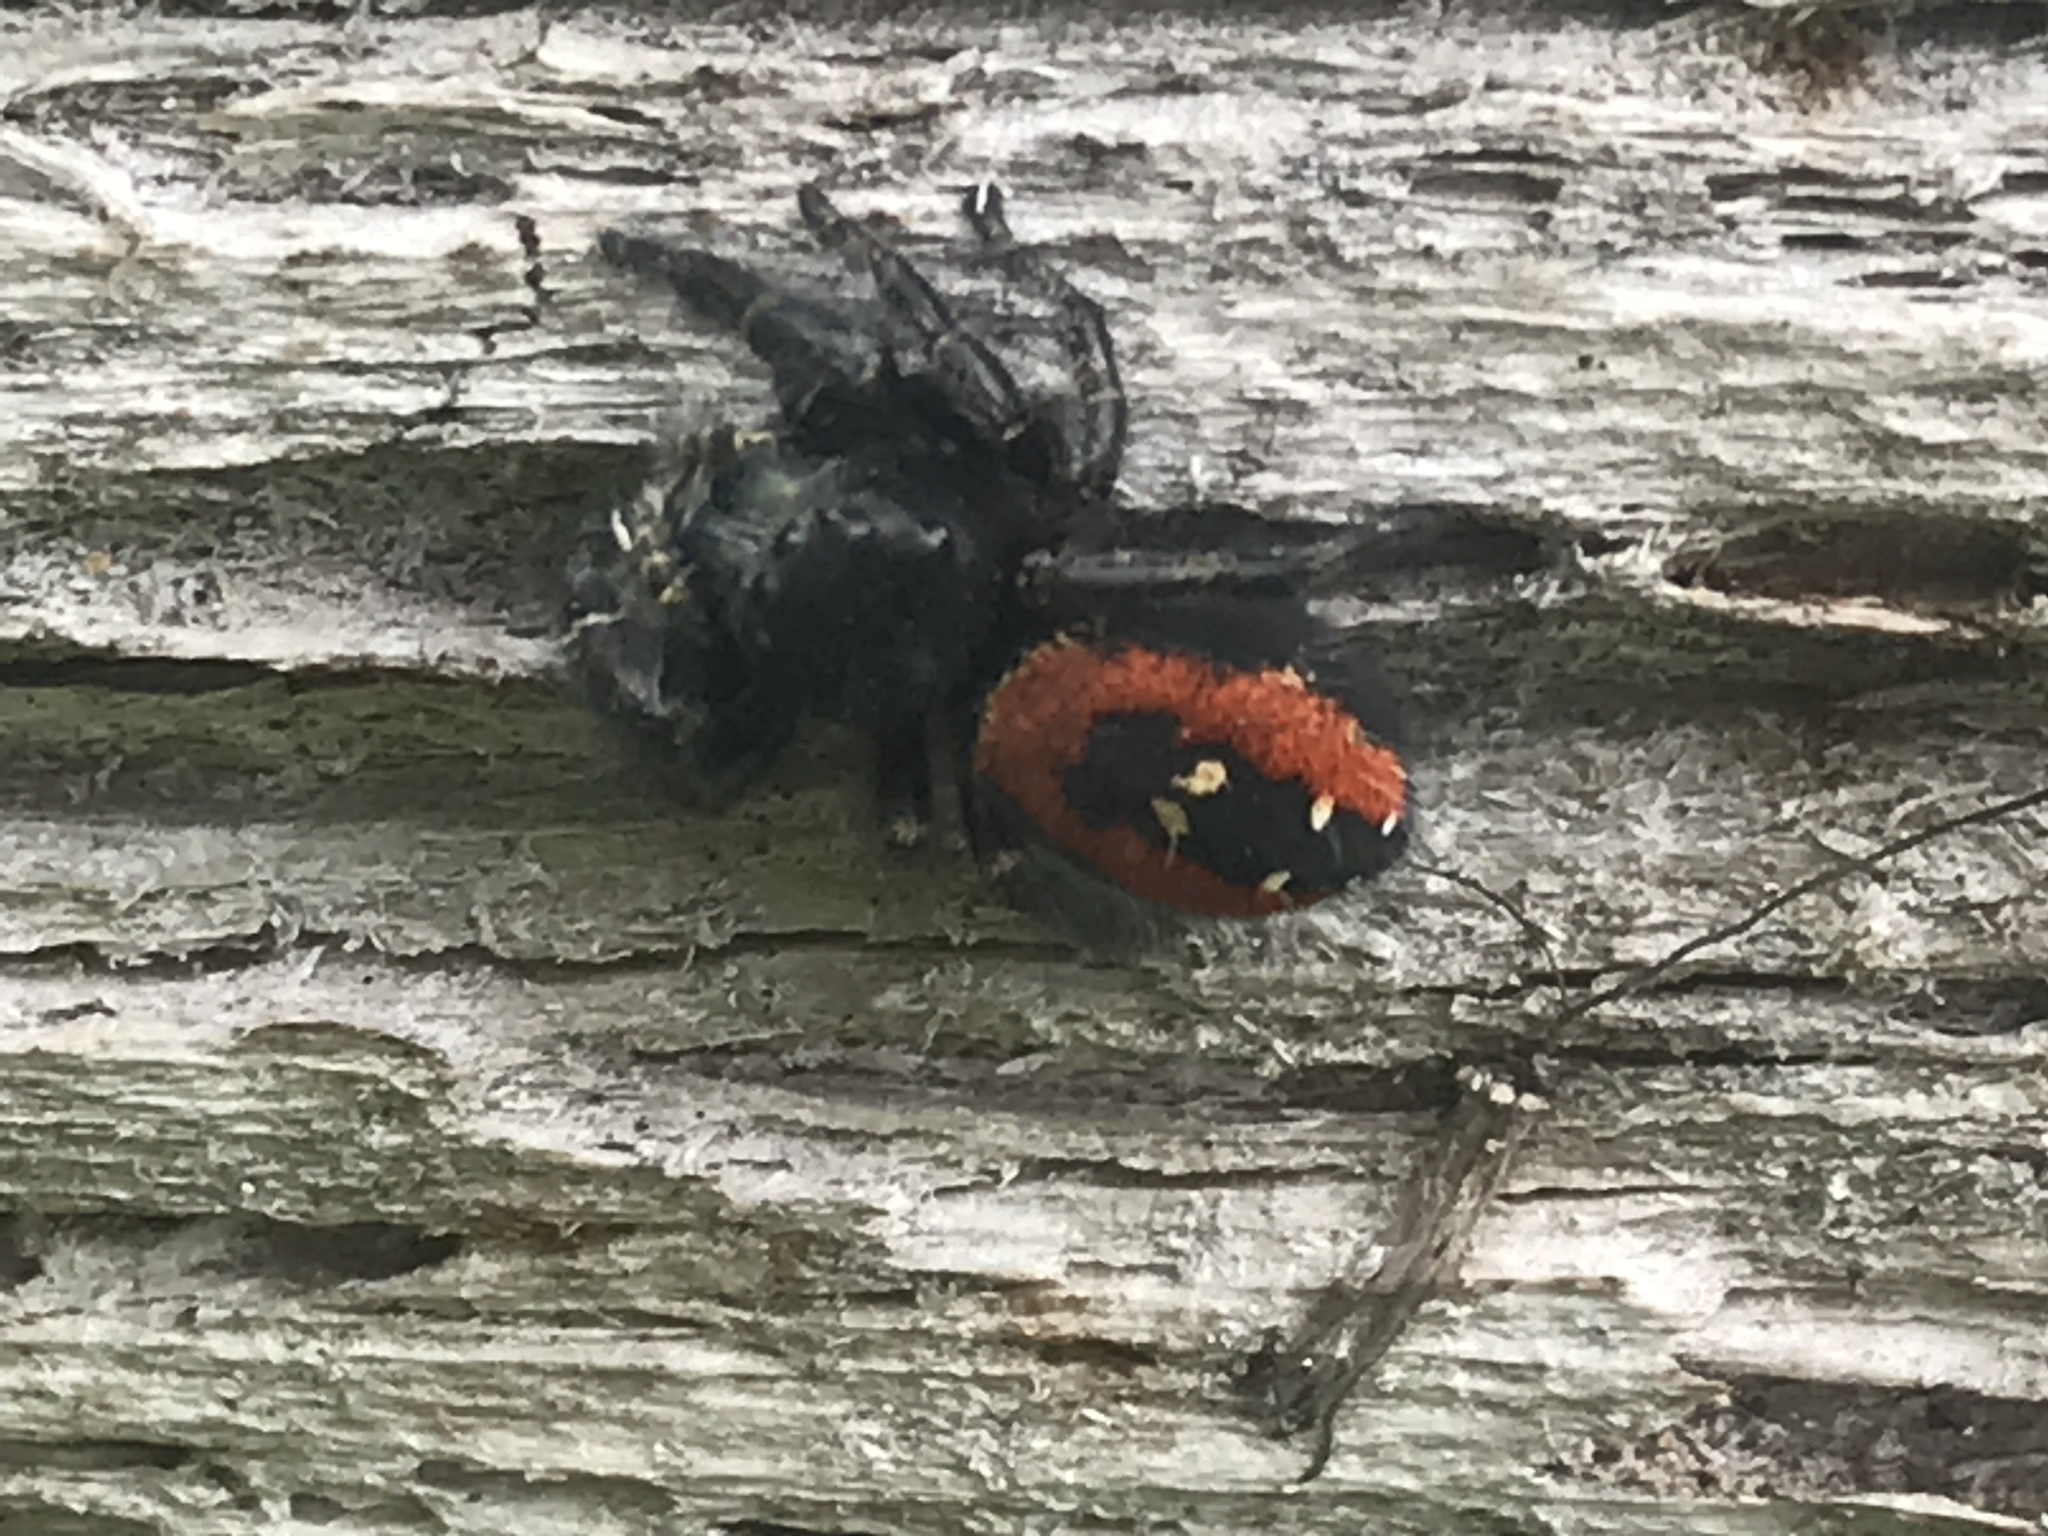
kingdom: Animalia
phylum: Arthropoda
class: Arachnida
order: Araneae
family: Salticidae
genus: Phidippus
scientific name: Phidippus johnsoni
